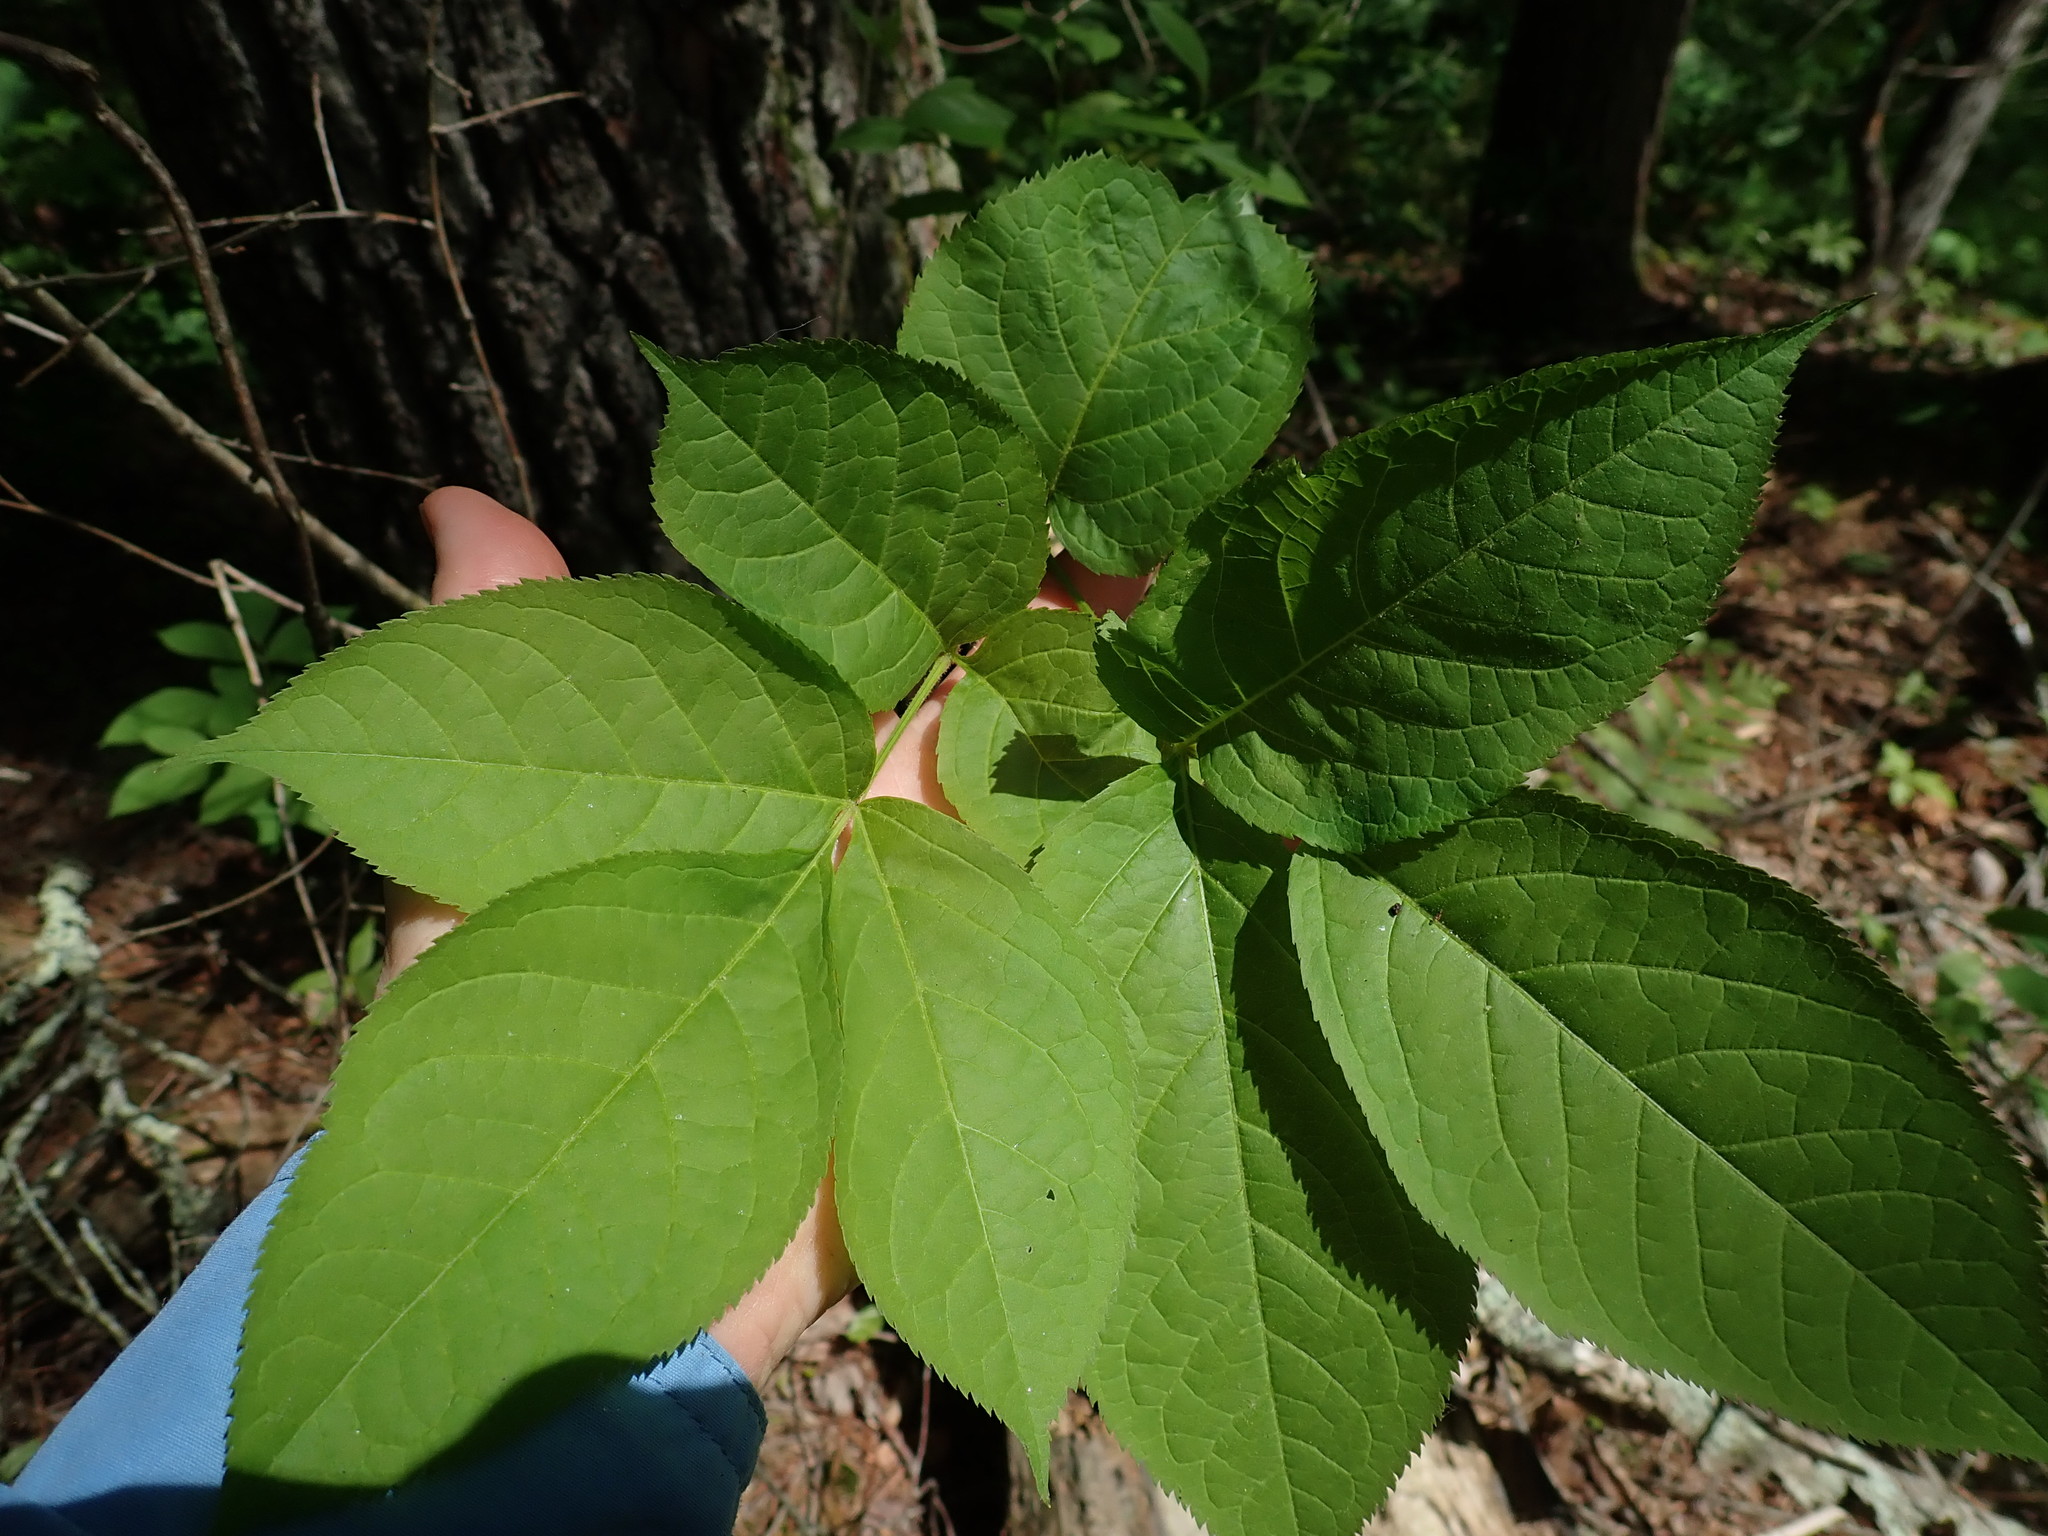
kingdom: Plantae
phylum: Tracheophyta
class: Magnoliopsida
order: Lamiales
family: Oleaceae
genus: Fraxinus
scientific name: Fraxinus nigra
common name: Black ash
